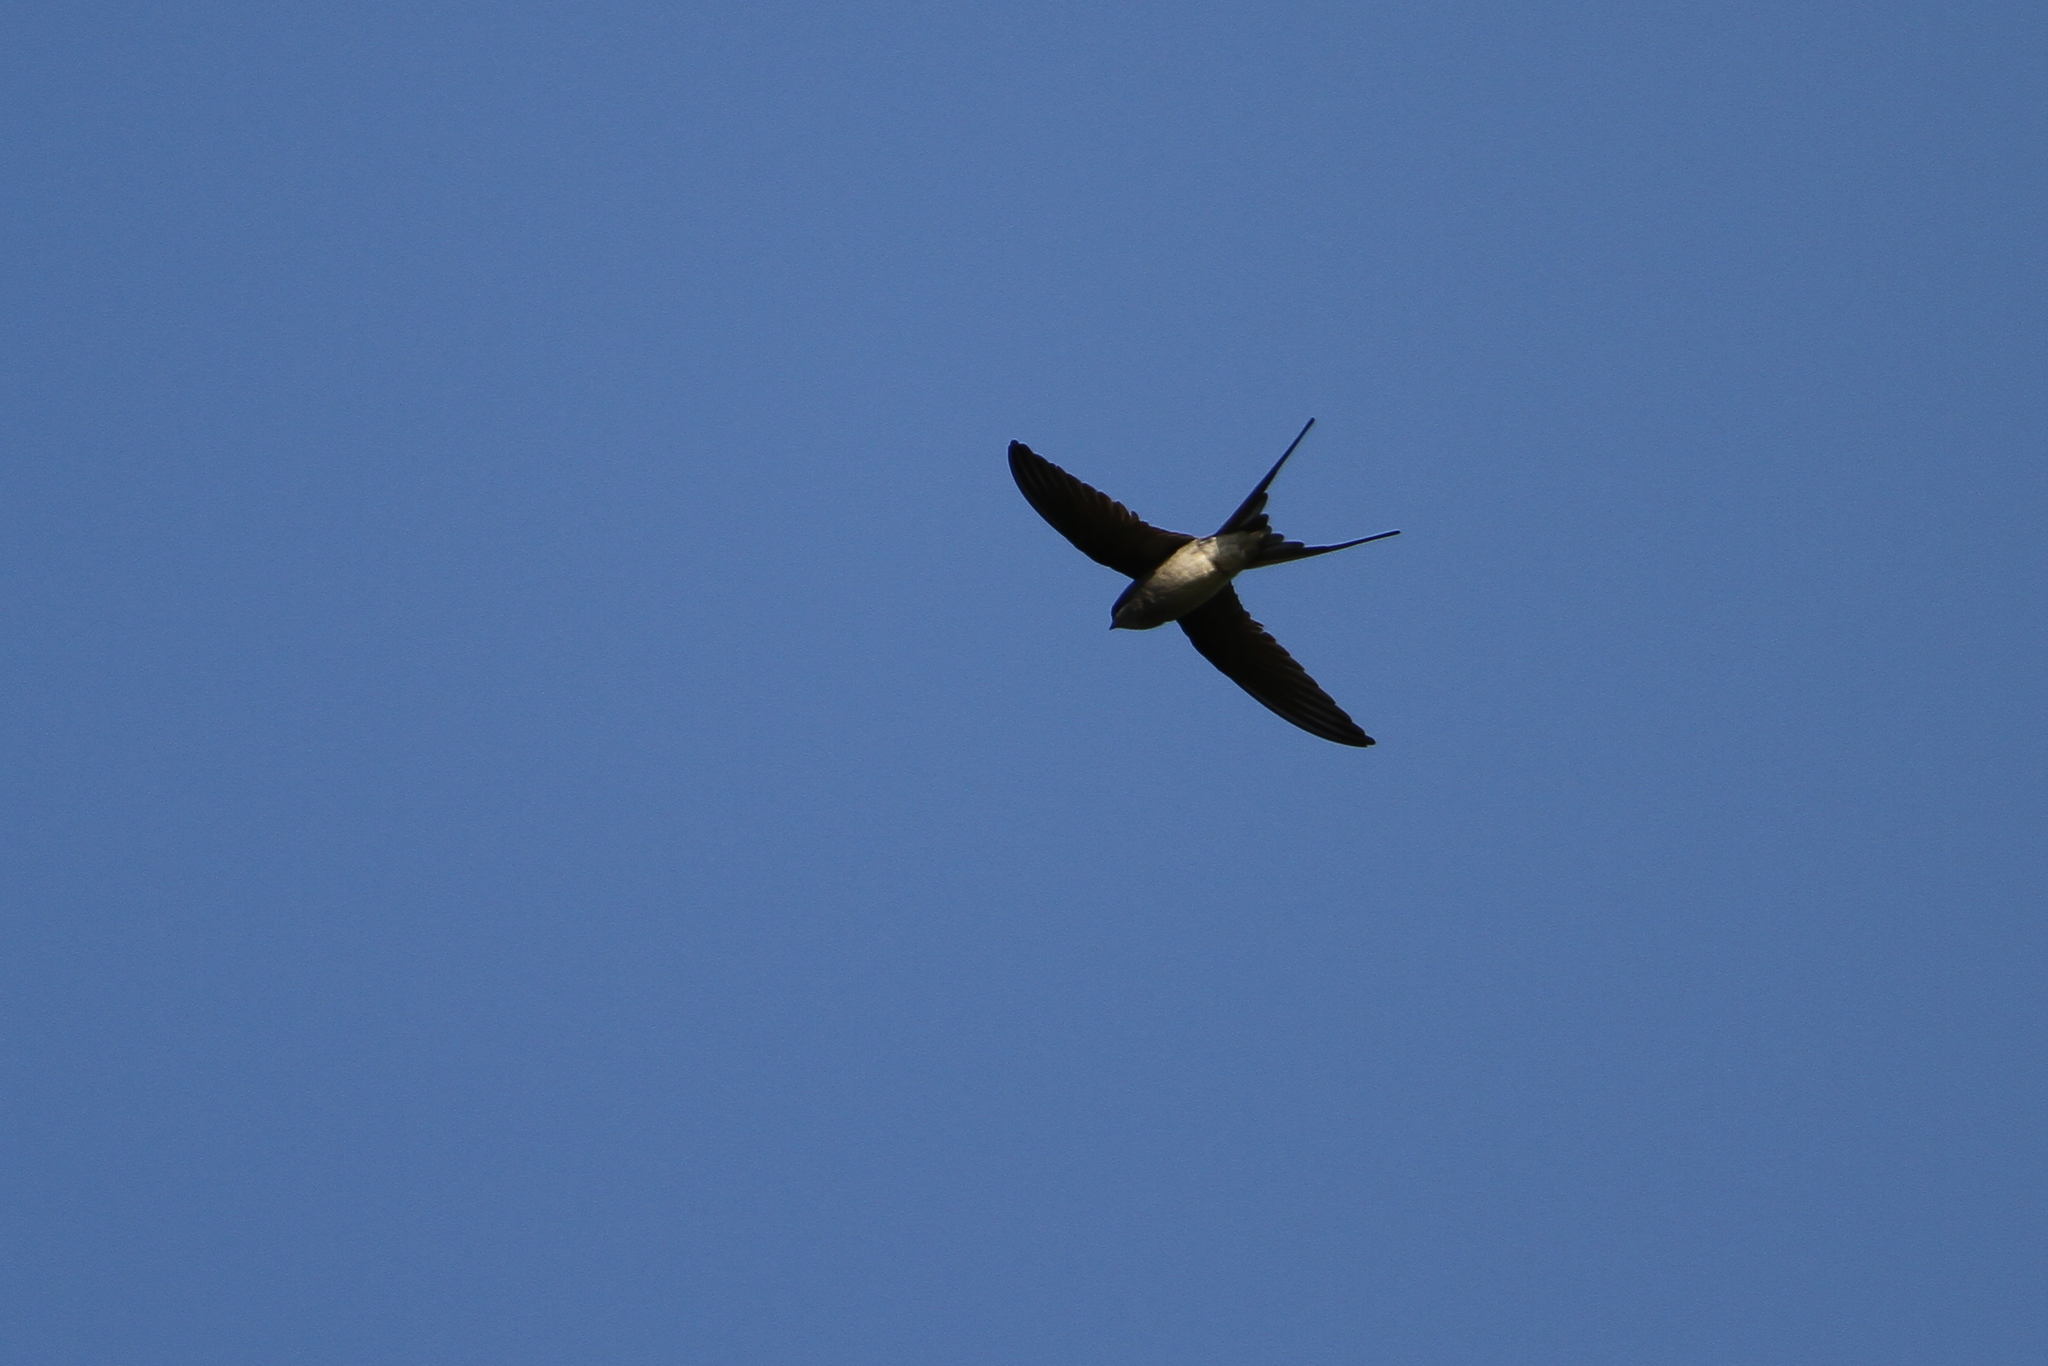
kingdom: Animalia
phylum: Chordata
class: Aves
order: Apodiformes
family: Hemiprocnidae
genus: Hemiprocne
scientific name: Hemiprocne coronata
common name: Crested treeswift
